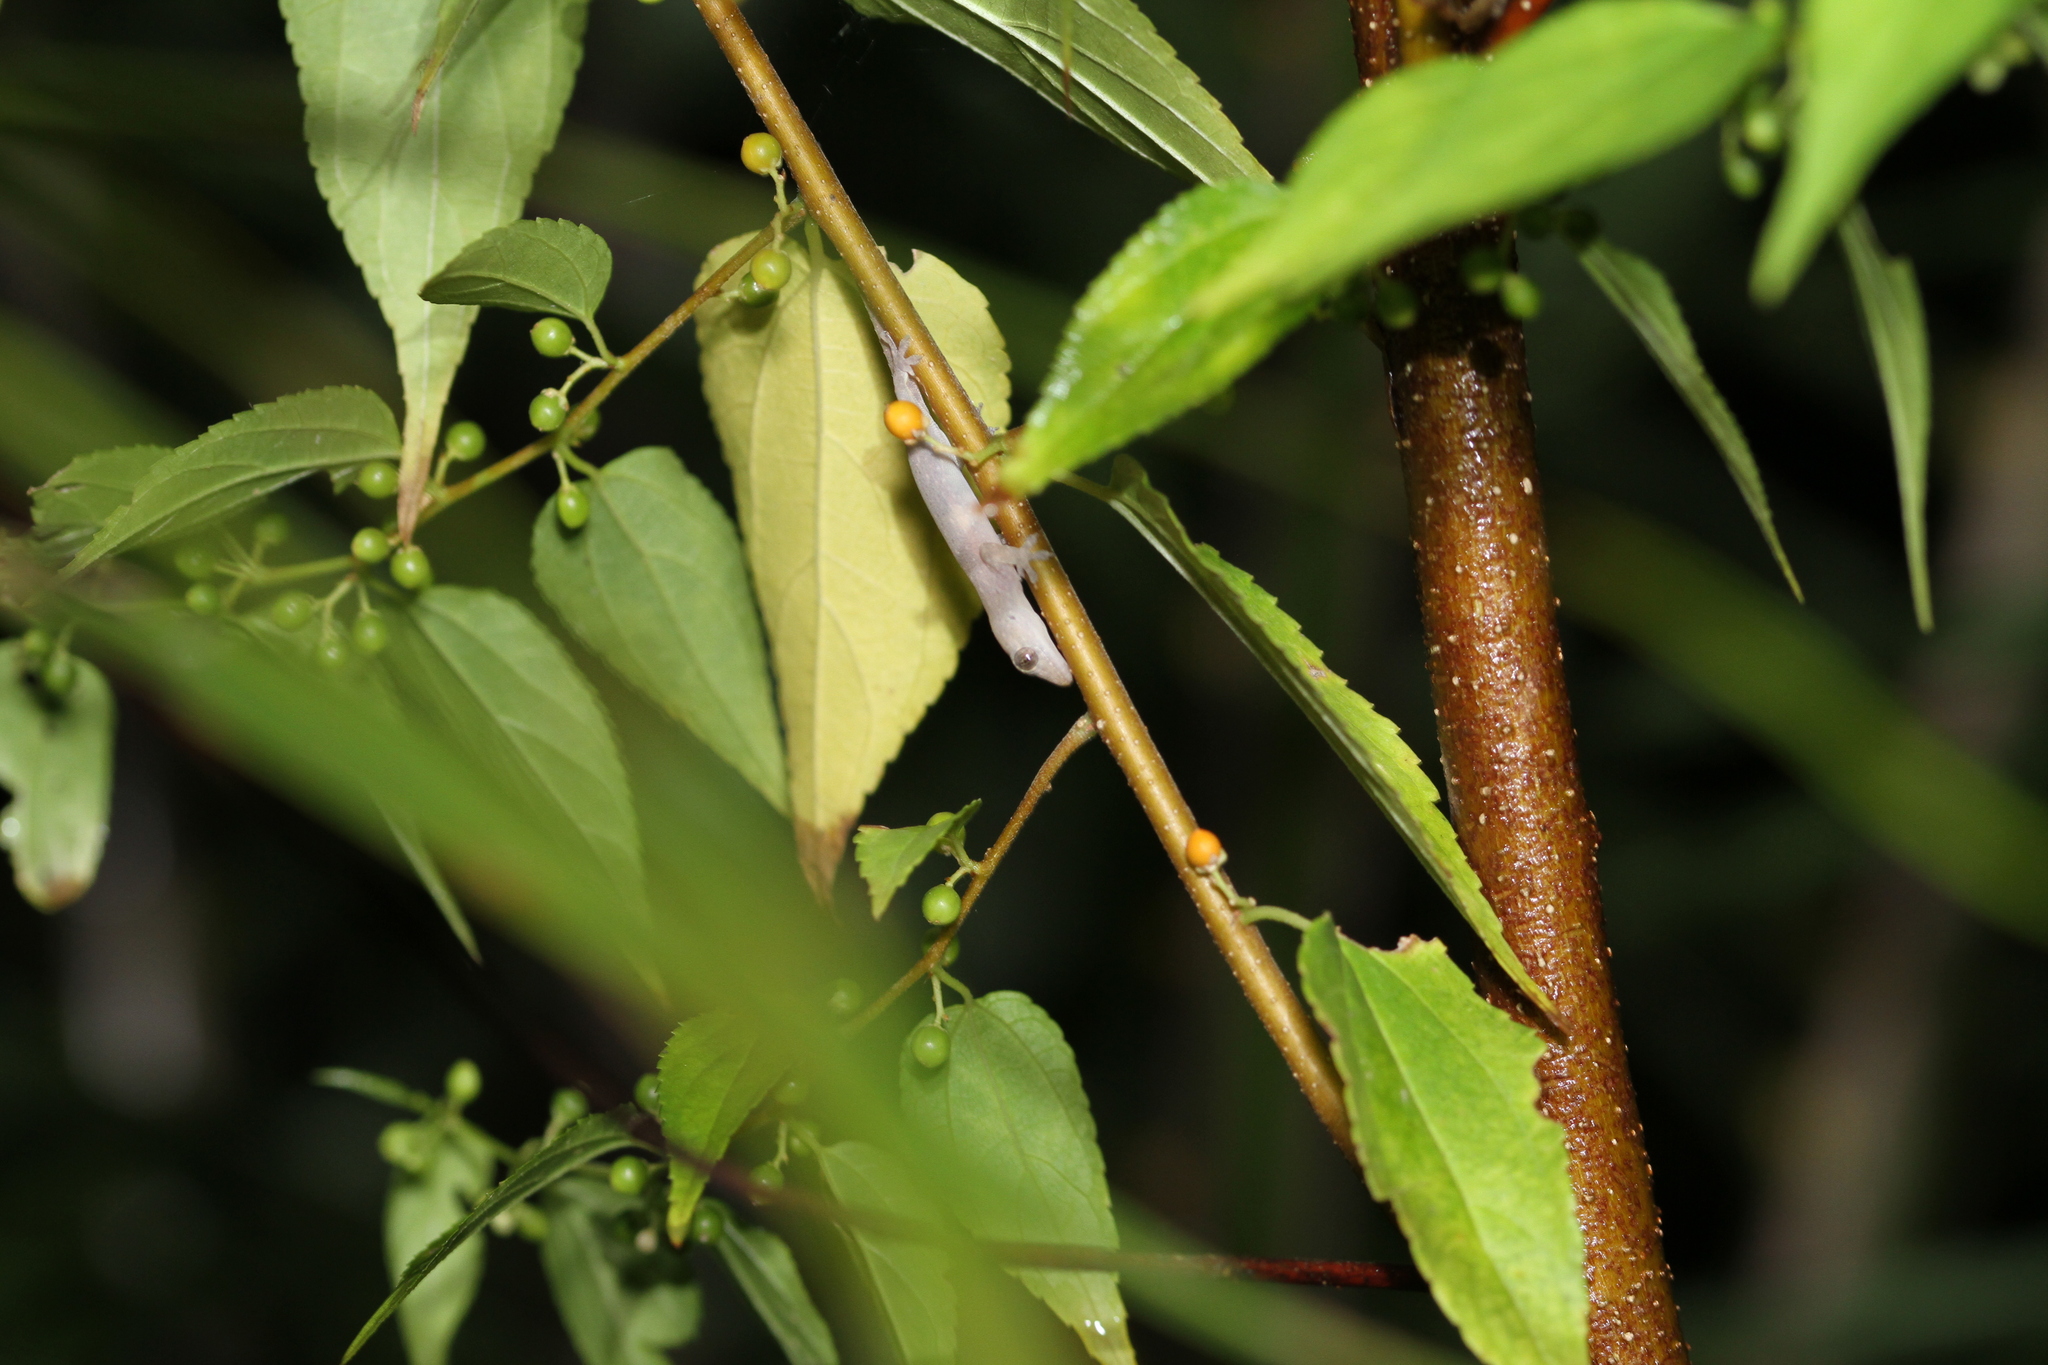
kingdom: Animalia
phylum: Chordata
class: Squamata
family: Gekkonidae
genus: Hemidactylus
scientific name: Hemidactylus frenatus
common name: Common house gecko
